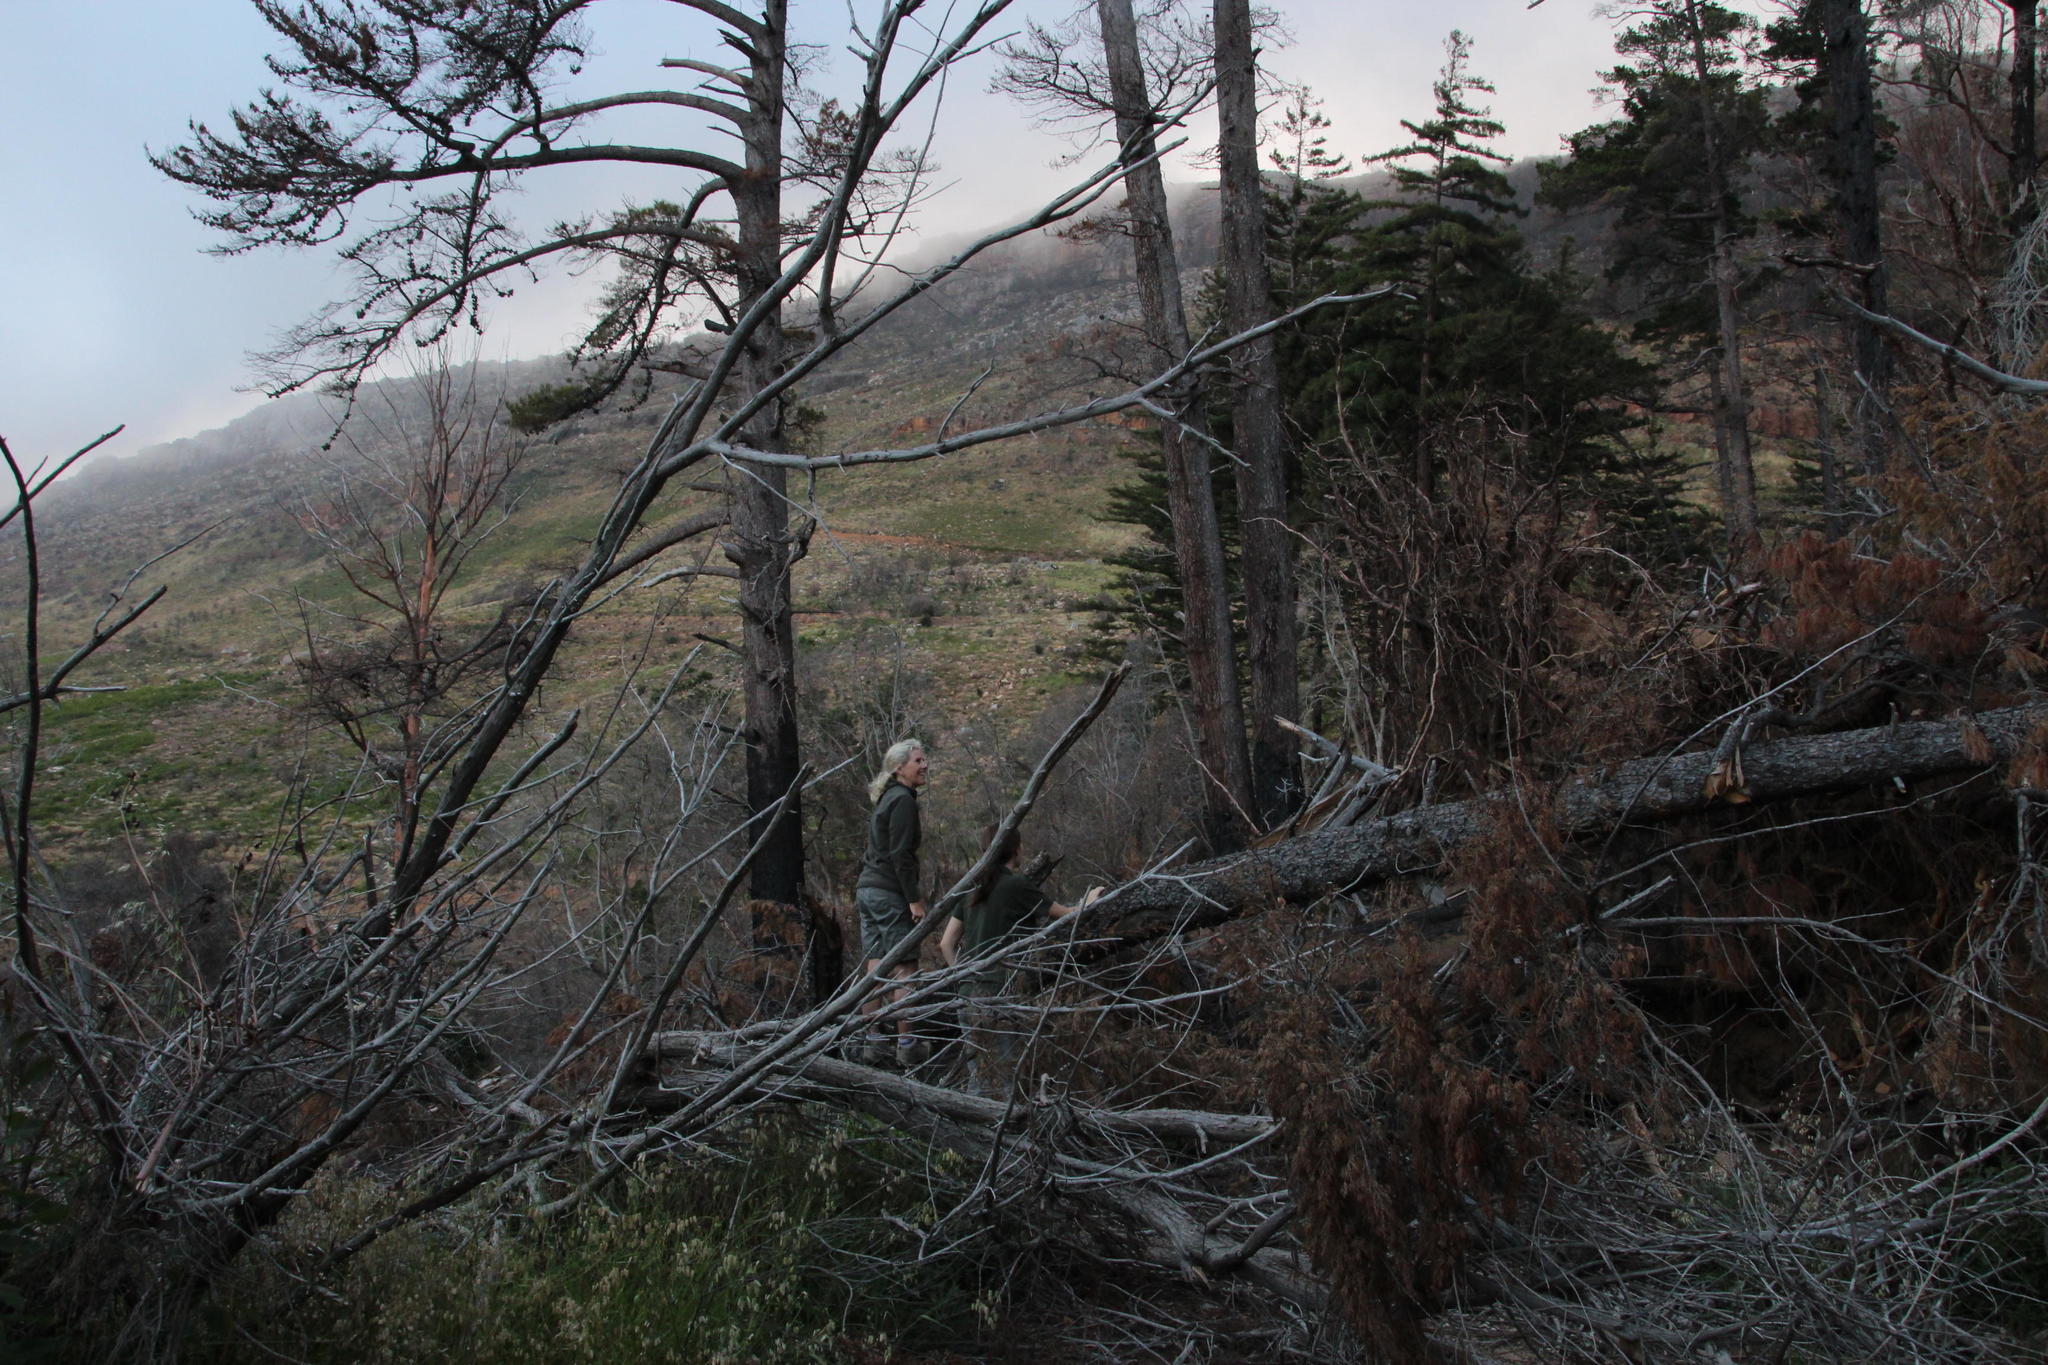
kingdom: Plantae
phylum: Tracheophyta
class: Pinopsida
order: Pinales
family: Pinaceae
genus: Pinus
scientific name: Pinus radiata
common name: Monterey pine
